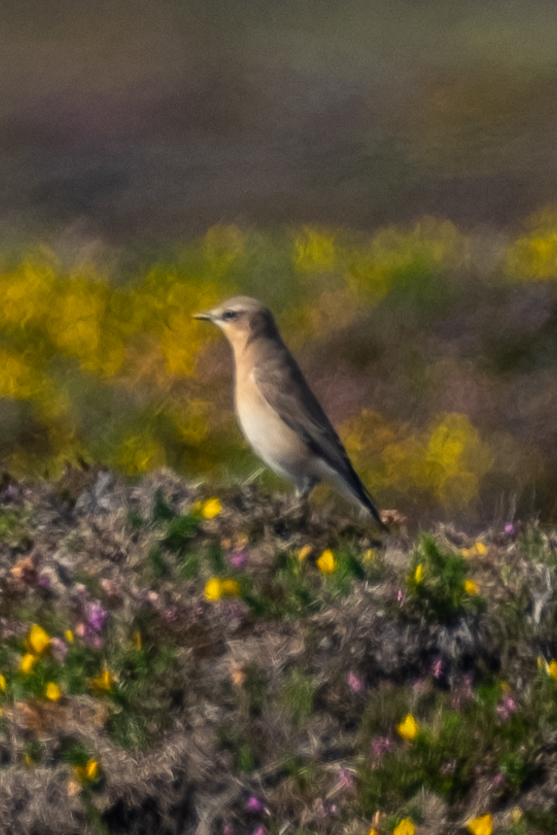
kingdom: Animalia
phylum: Chordata
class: Aves
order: Passeriformes
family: Muscicapidae
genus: Oenanthe
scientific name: Oenanthe oenanthe
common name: Northern wheatear
